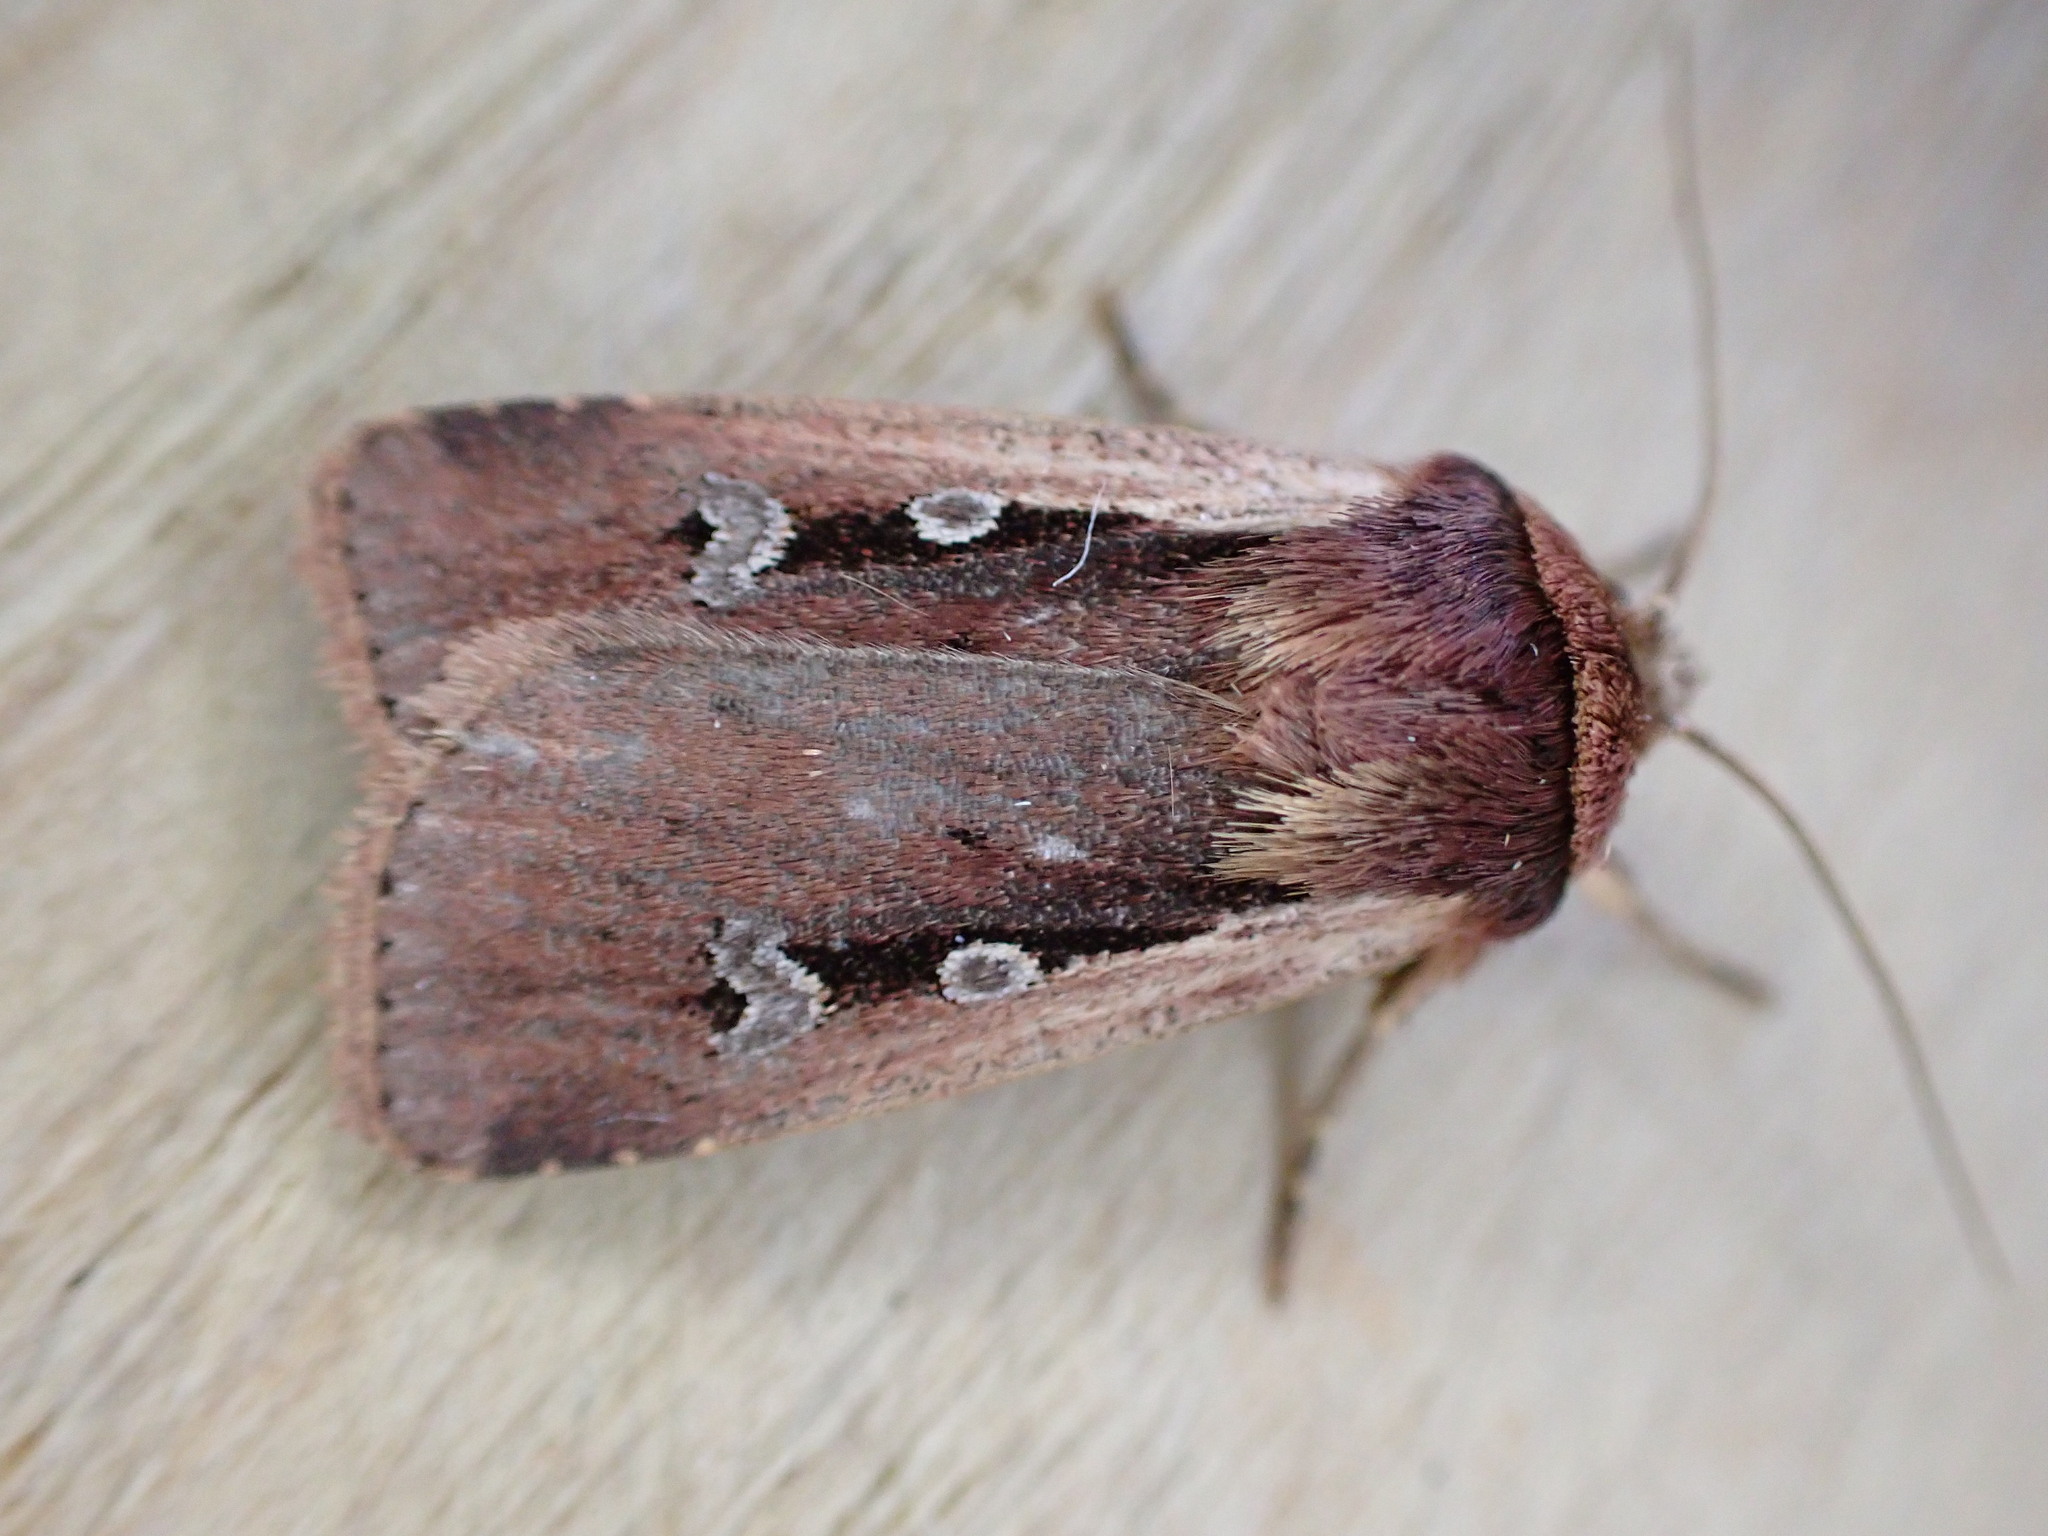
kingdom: Animalia
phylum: Arthropoda
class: Insecta
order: Lepidoptera
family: Noctuidae
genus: Ochropleura
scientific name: Ochropleura plecta
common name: Flame shoulder
